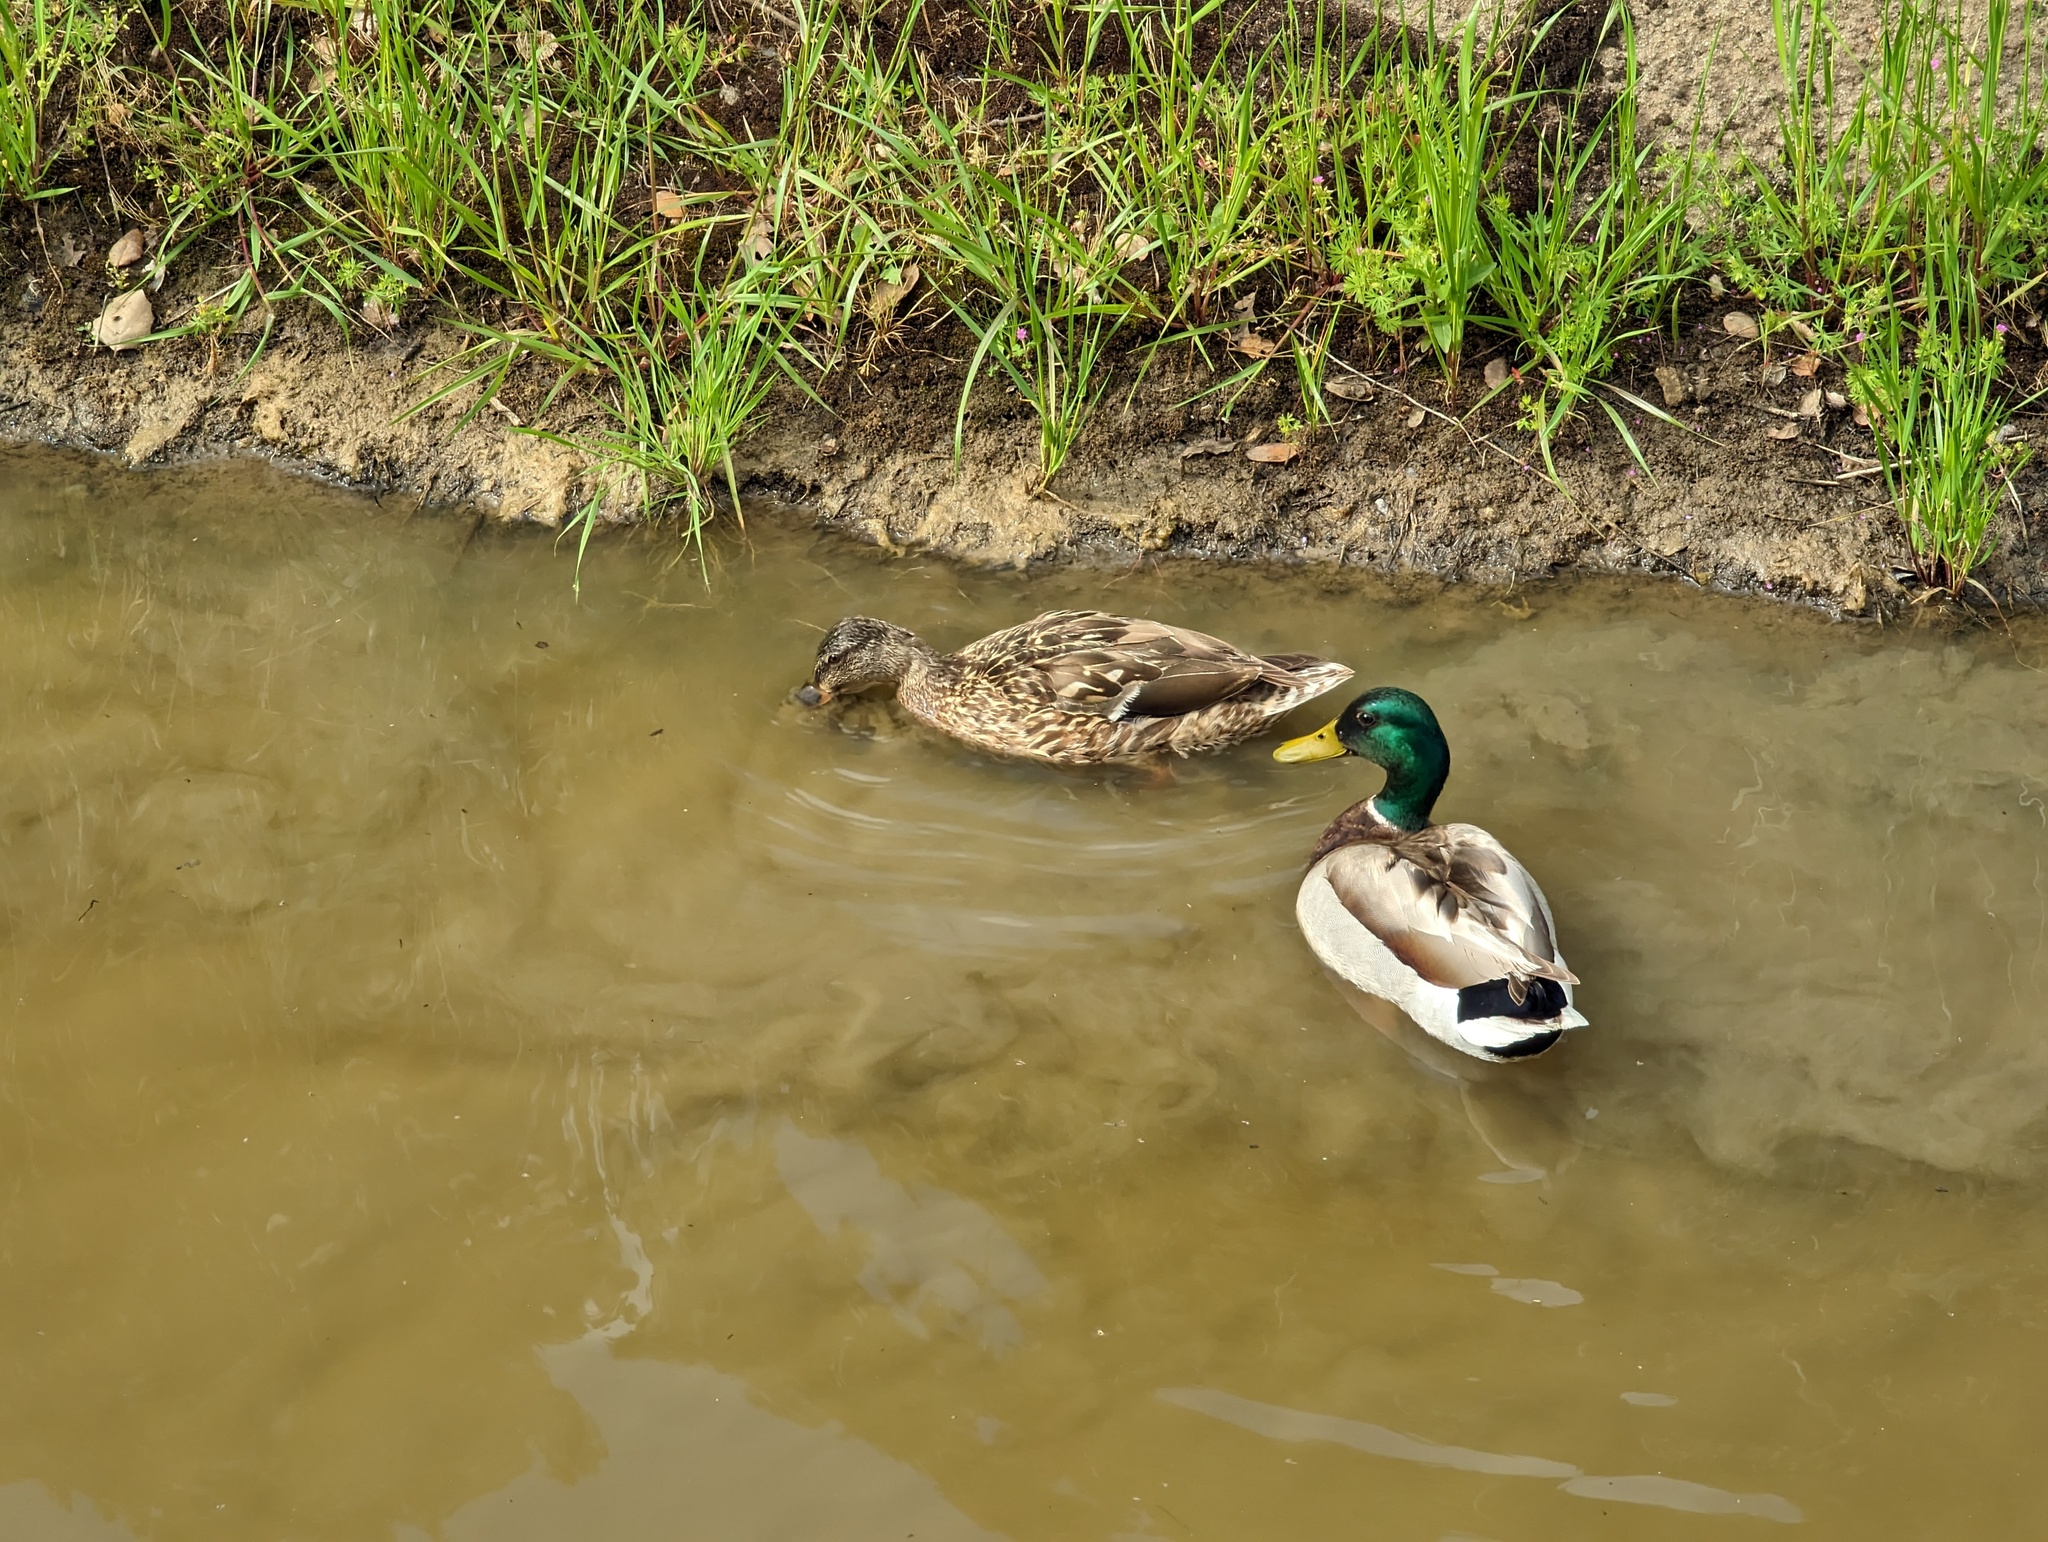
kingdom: Animalia
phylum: Chordata
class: Aves
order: Anseriformes
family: Anatidae
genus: Anas
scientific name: Anas platyrhynchos
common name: Mallard
